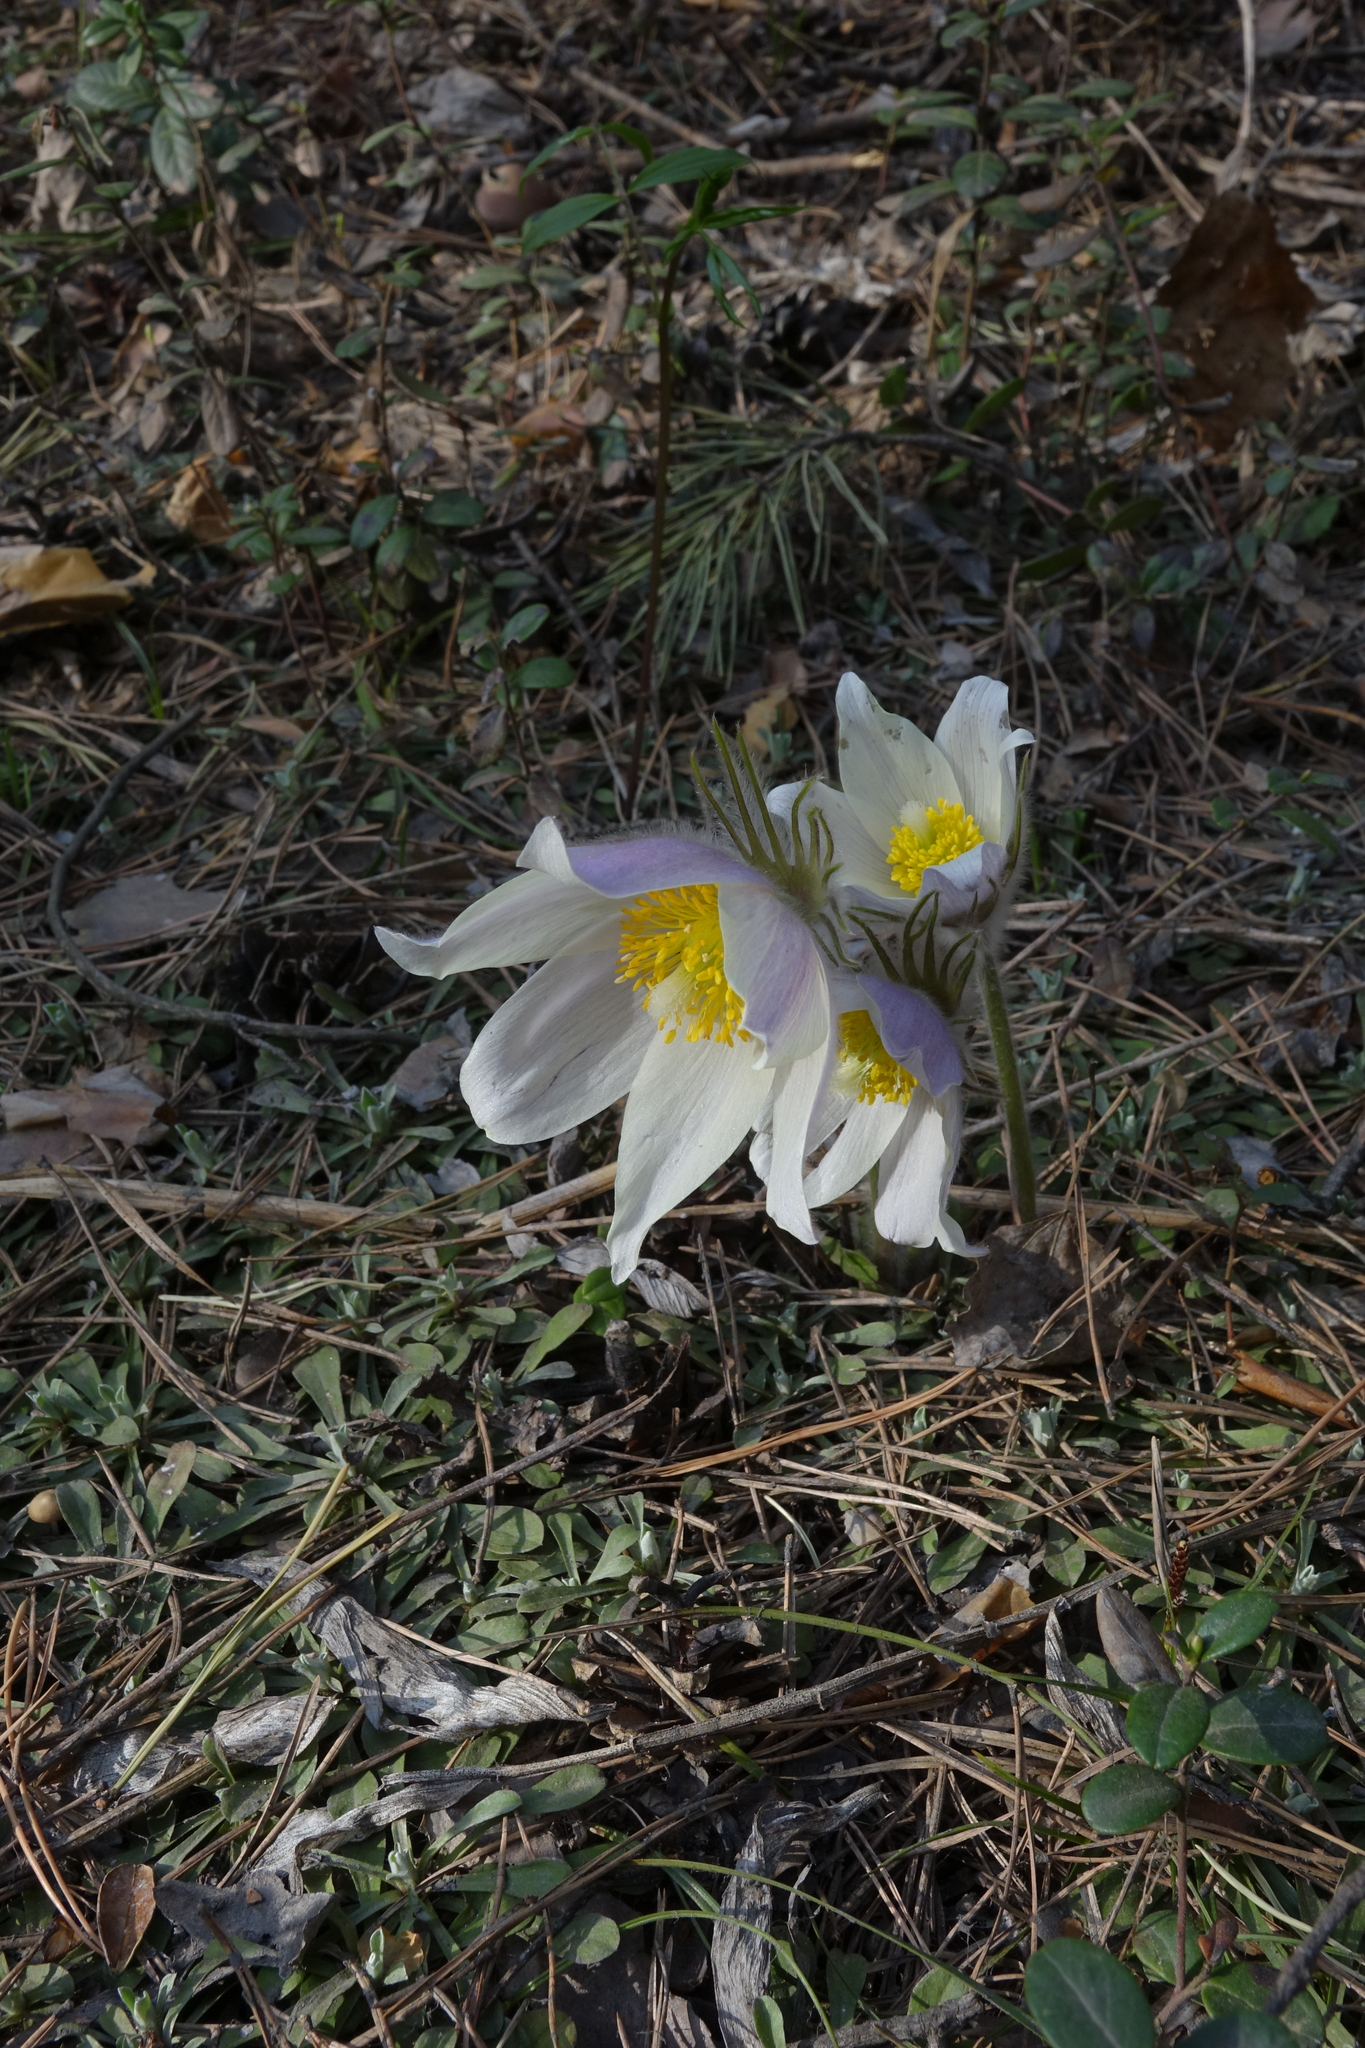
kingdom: Plantae
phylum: Tracheophyta
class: Magnoliopsida
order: Ranunculales
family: Ranunculaceae
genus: Pulsatilla
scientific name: Pulsatilla patens
